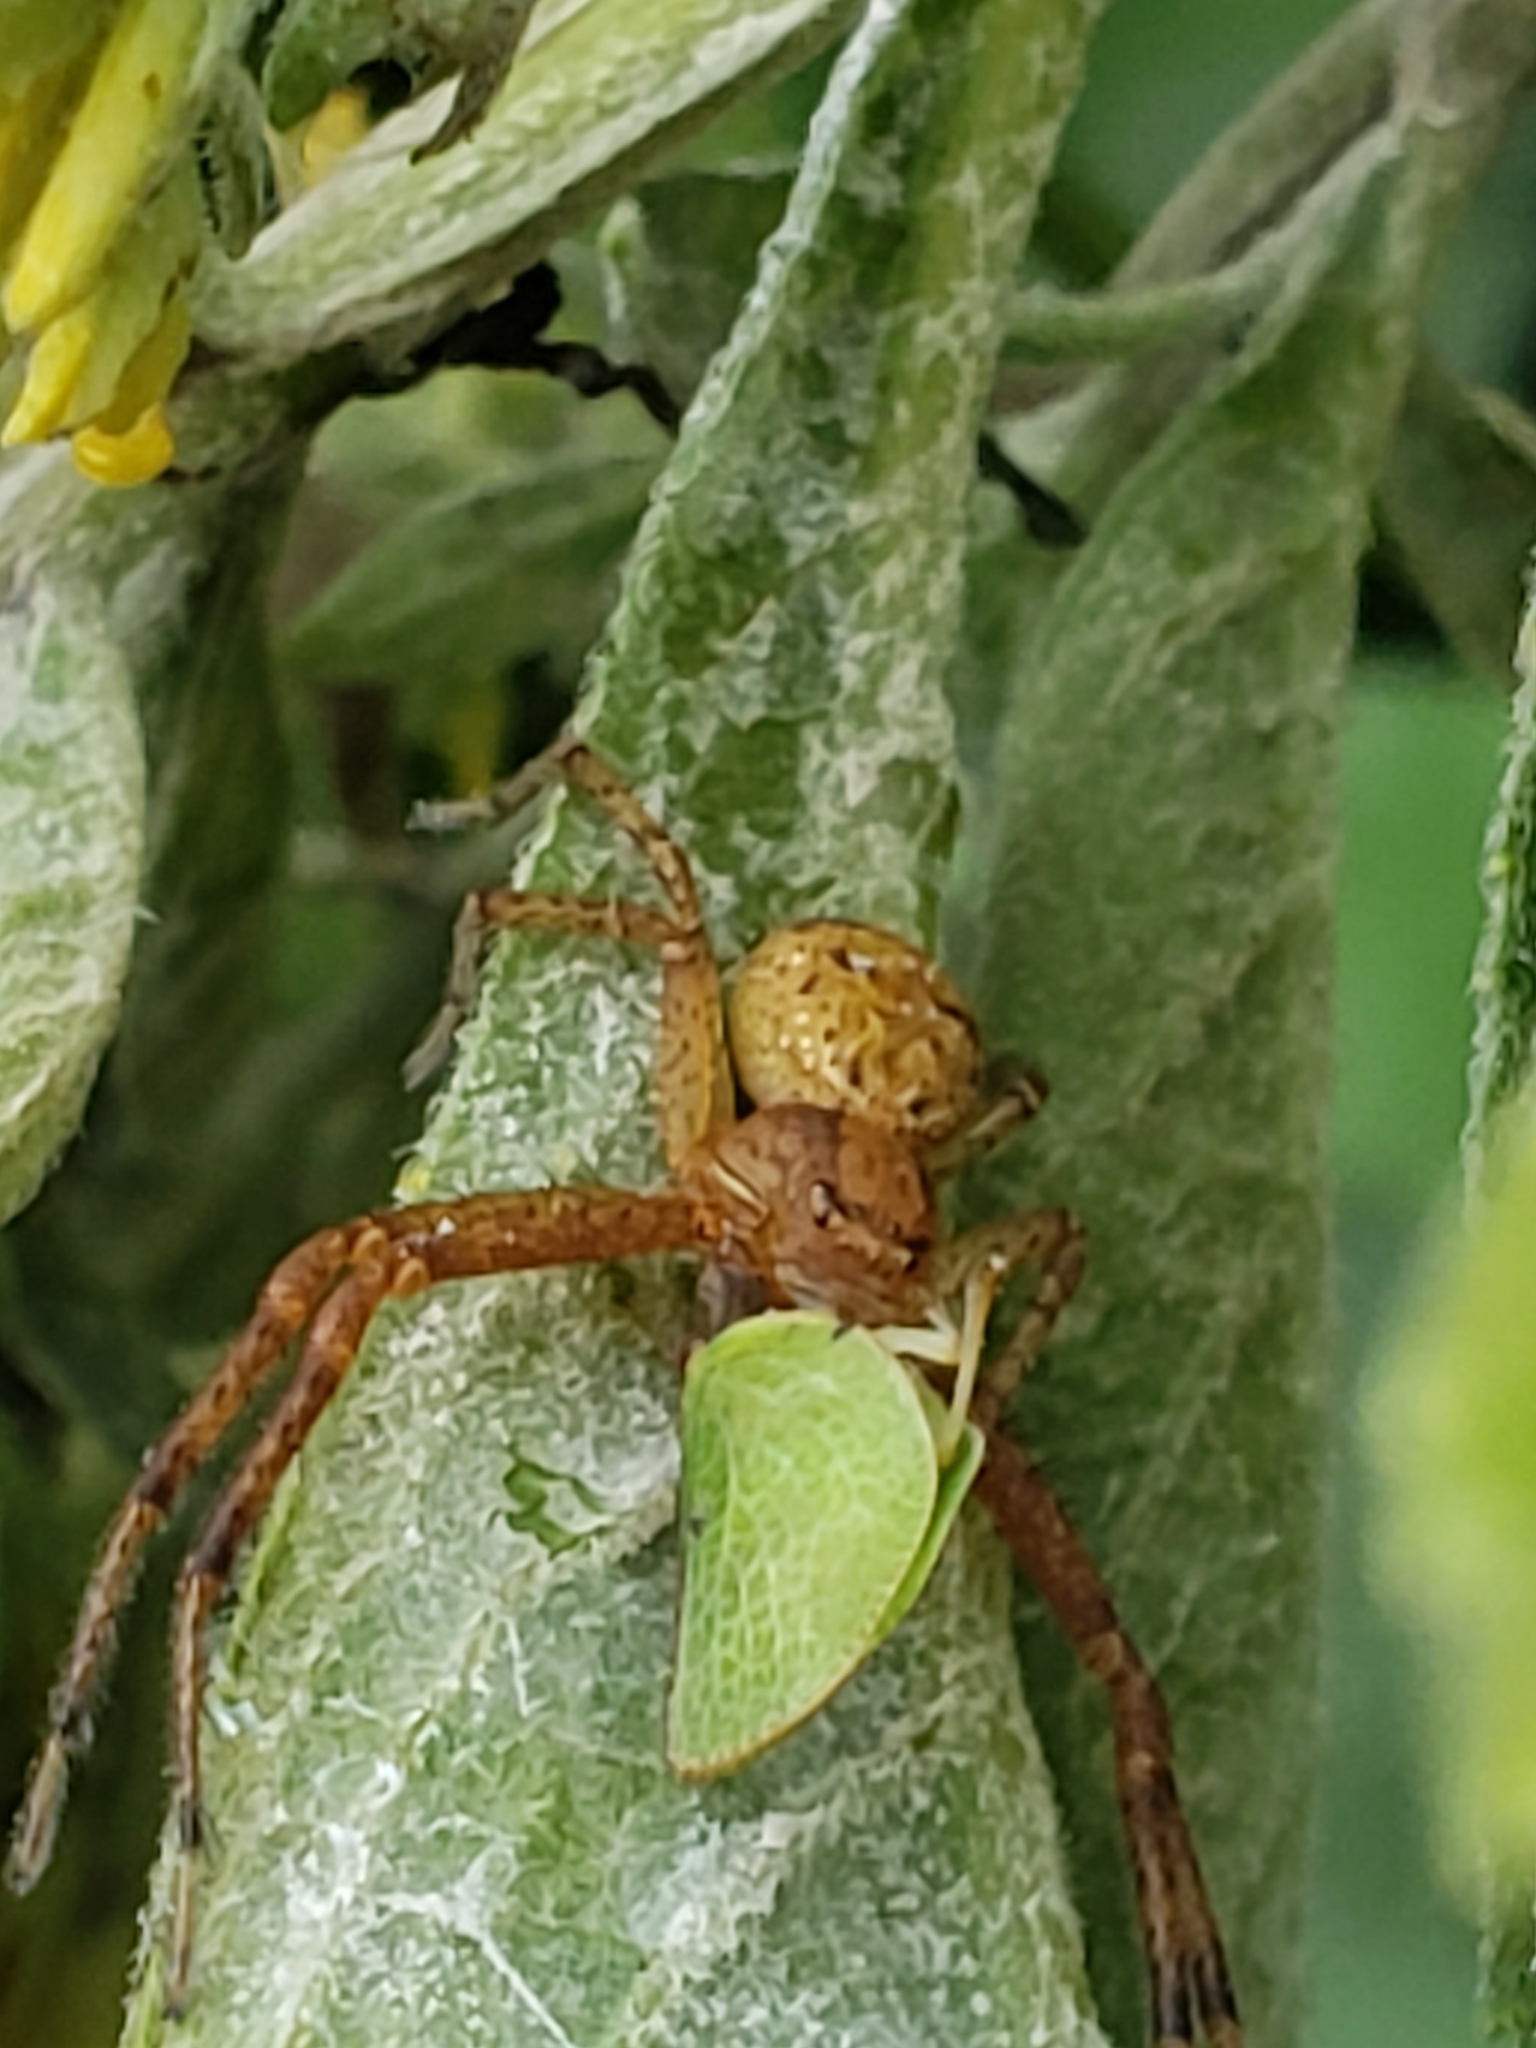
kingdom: Animalia
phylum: Arthropoda
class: Insecta
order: Hemiptera
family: Acanaloniidae
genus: Acanalonia
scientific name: Acanalonia bivittata
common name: Two-striped planthopper
